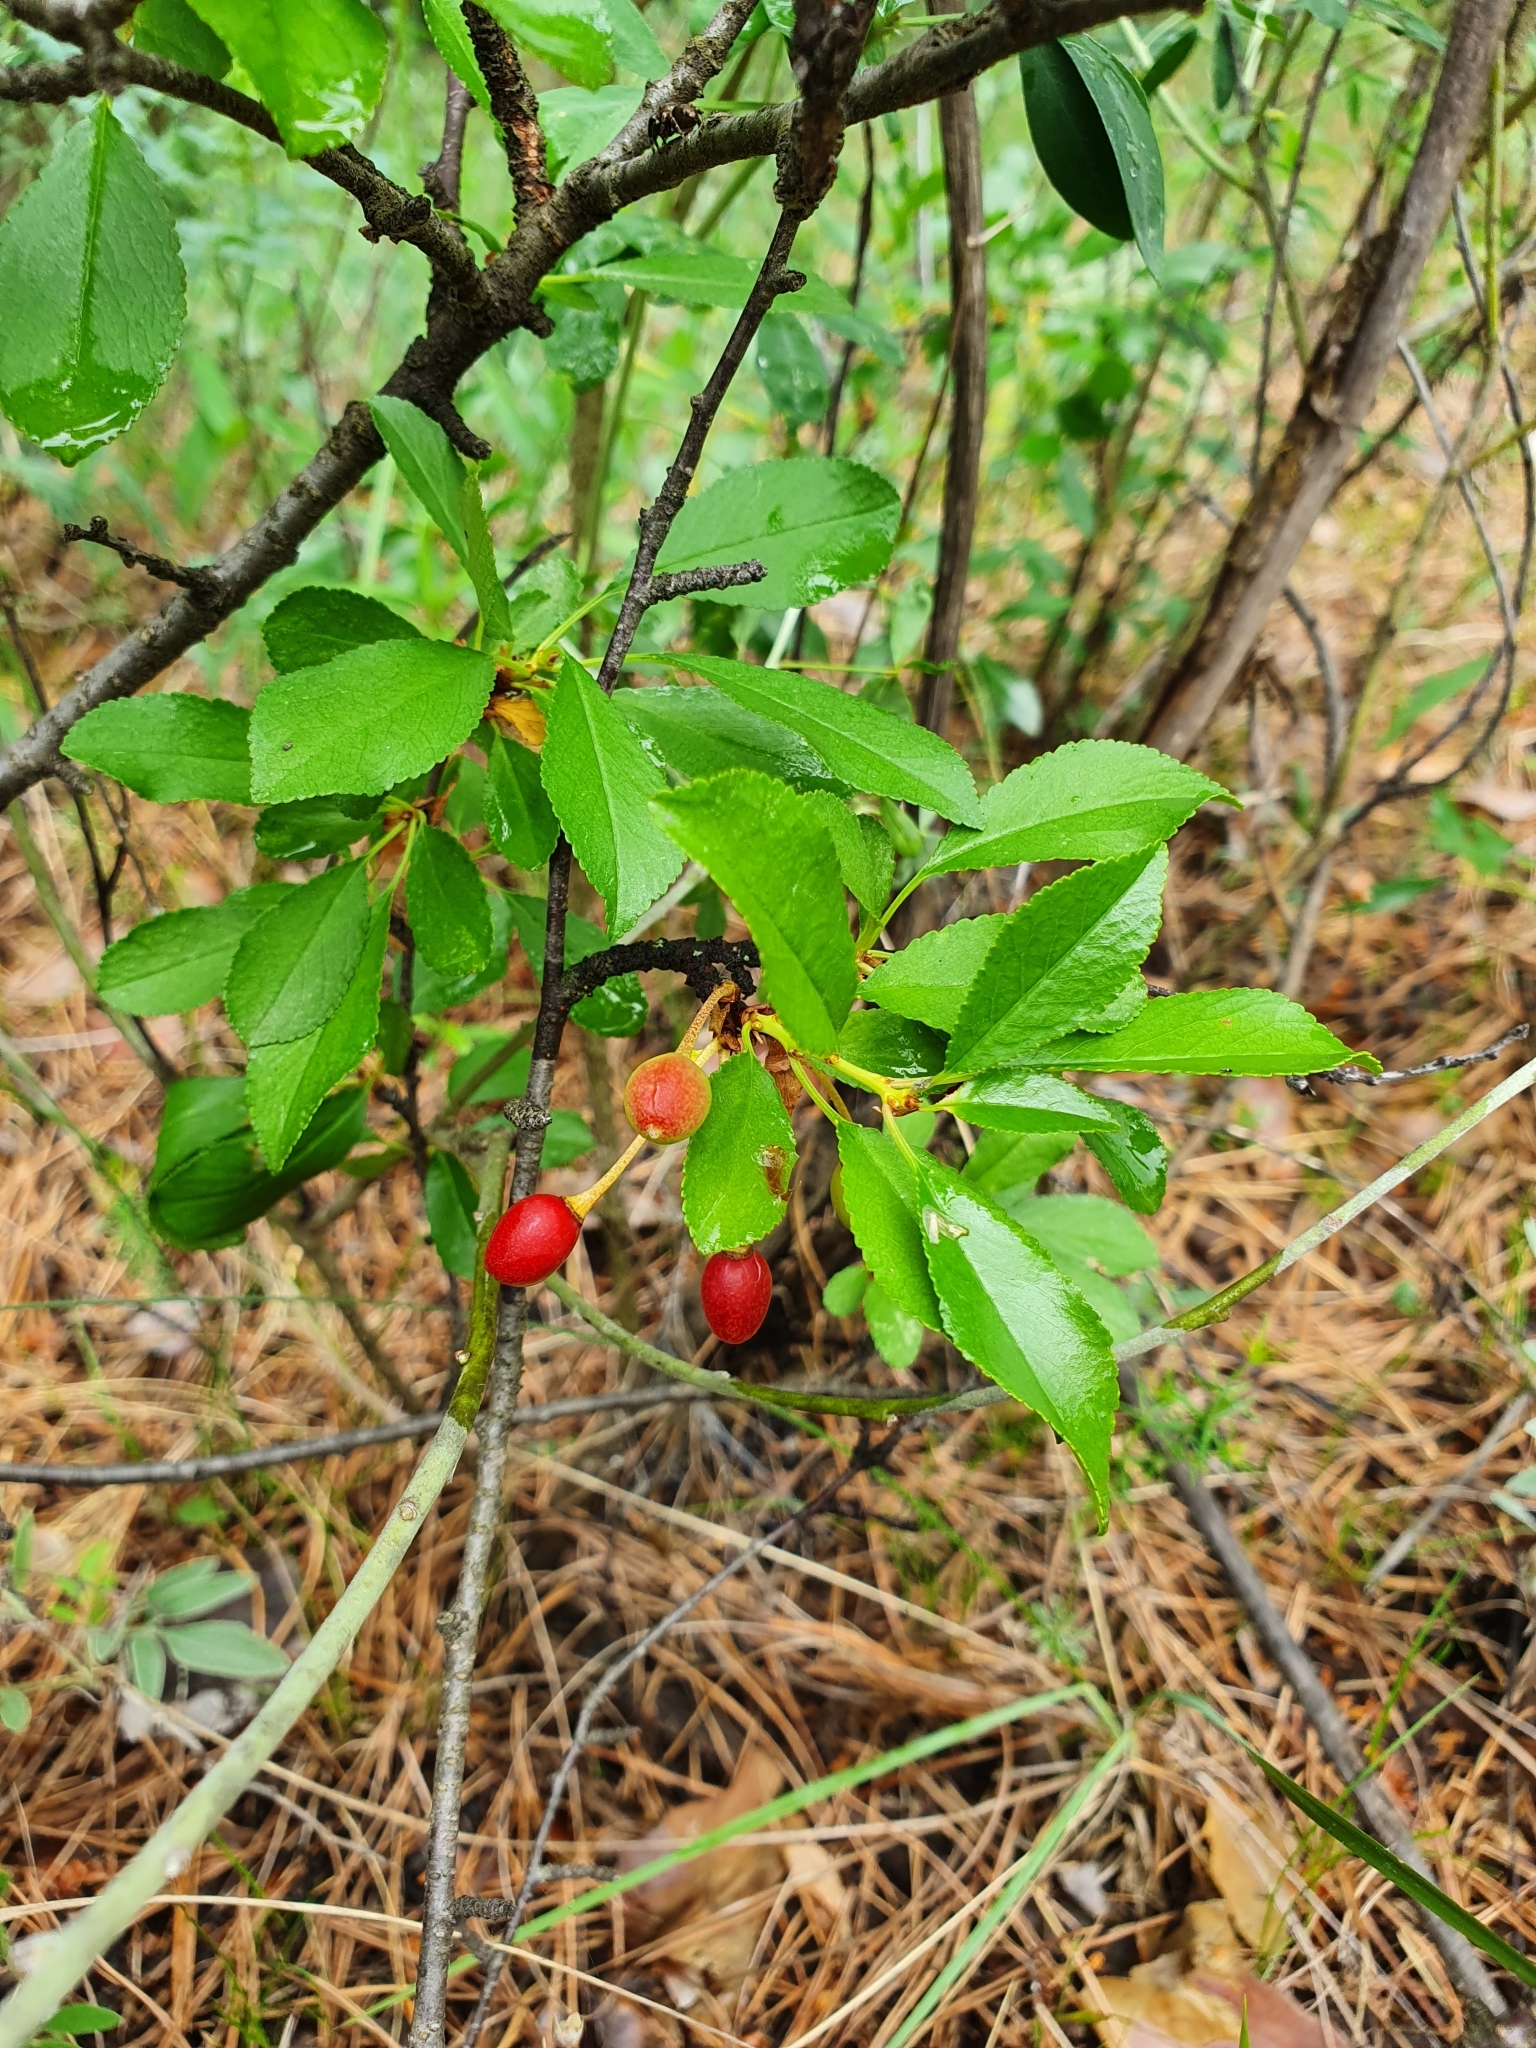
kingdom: Plantae
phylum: Tracheophyta
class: Magnoliopsida
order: Rosales
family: Rosaceae
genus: Prunus
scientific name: Prunus fruticosa
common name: European dwarf cherry
